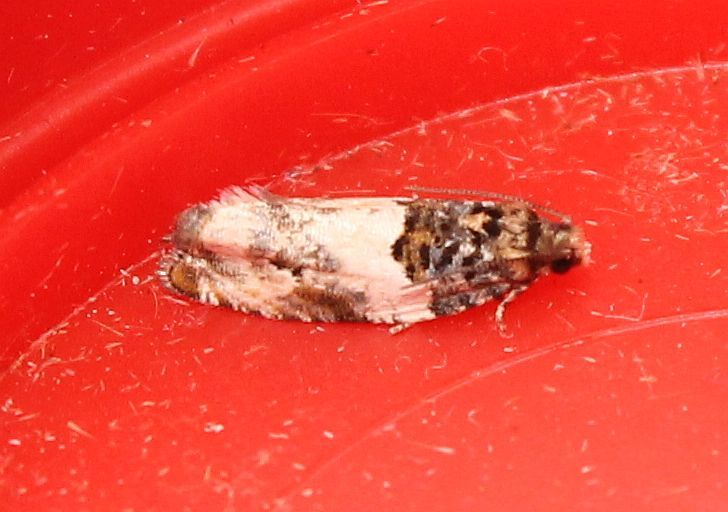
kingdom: Animalia
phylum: Arthropoda
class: Insecta
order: Lepidoptera
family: Tortricidae
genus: Gypsonoma
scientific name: Gypsonoma dealbana
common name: Common cloaked shoot
